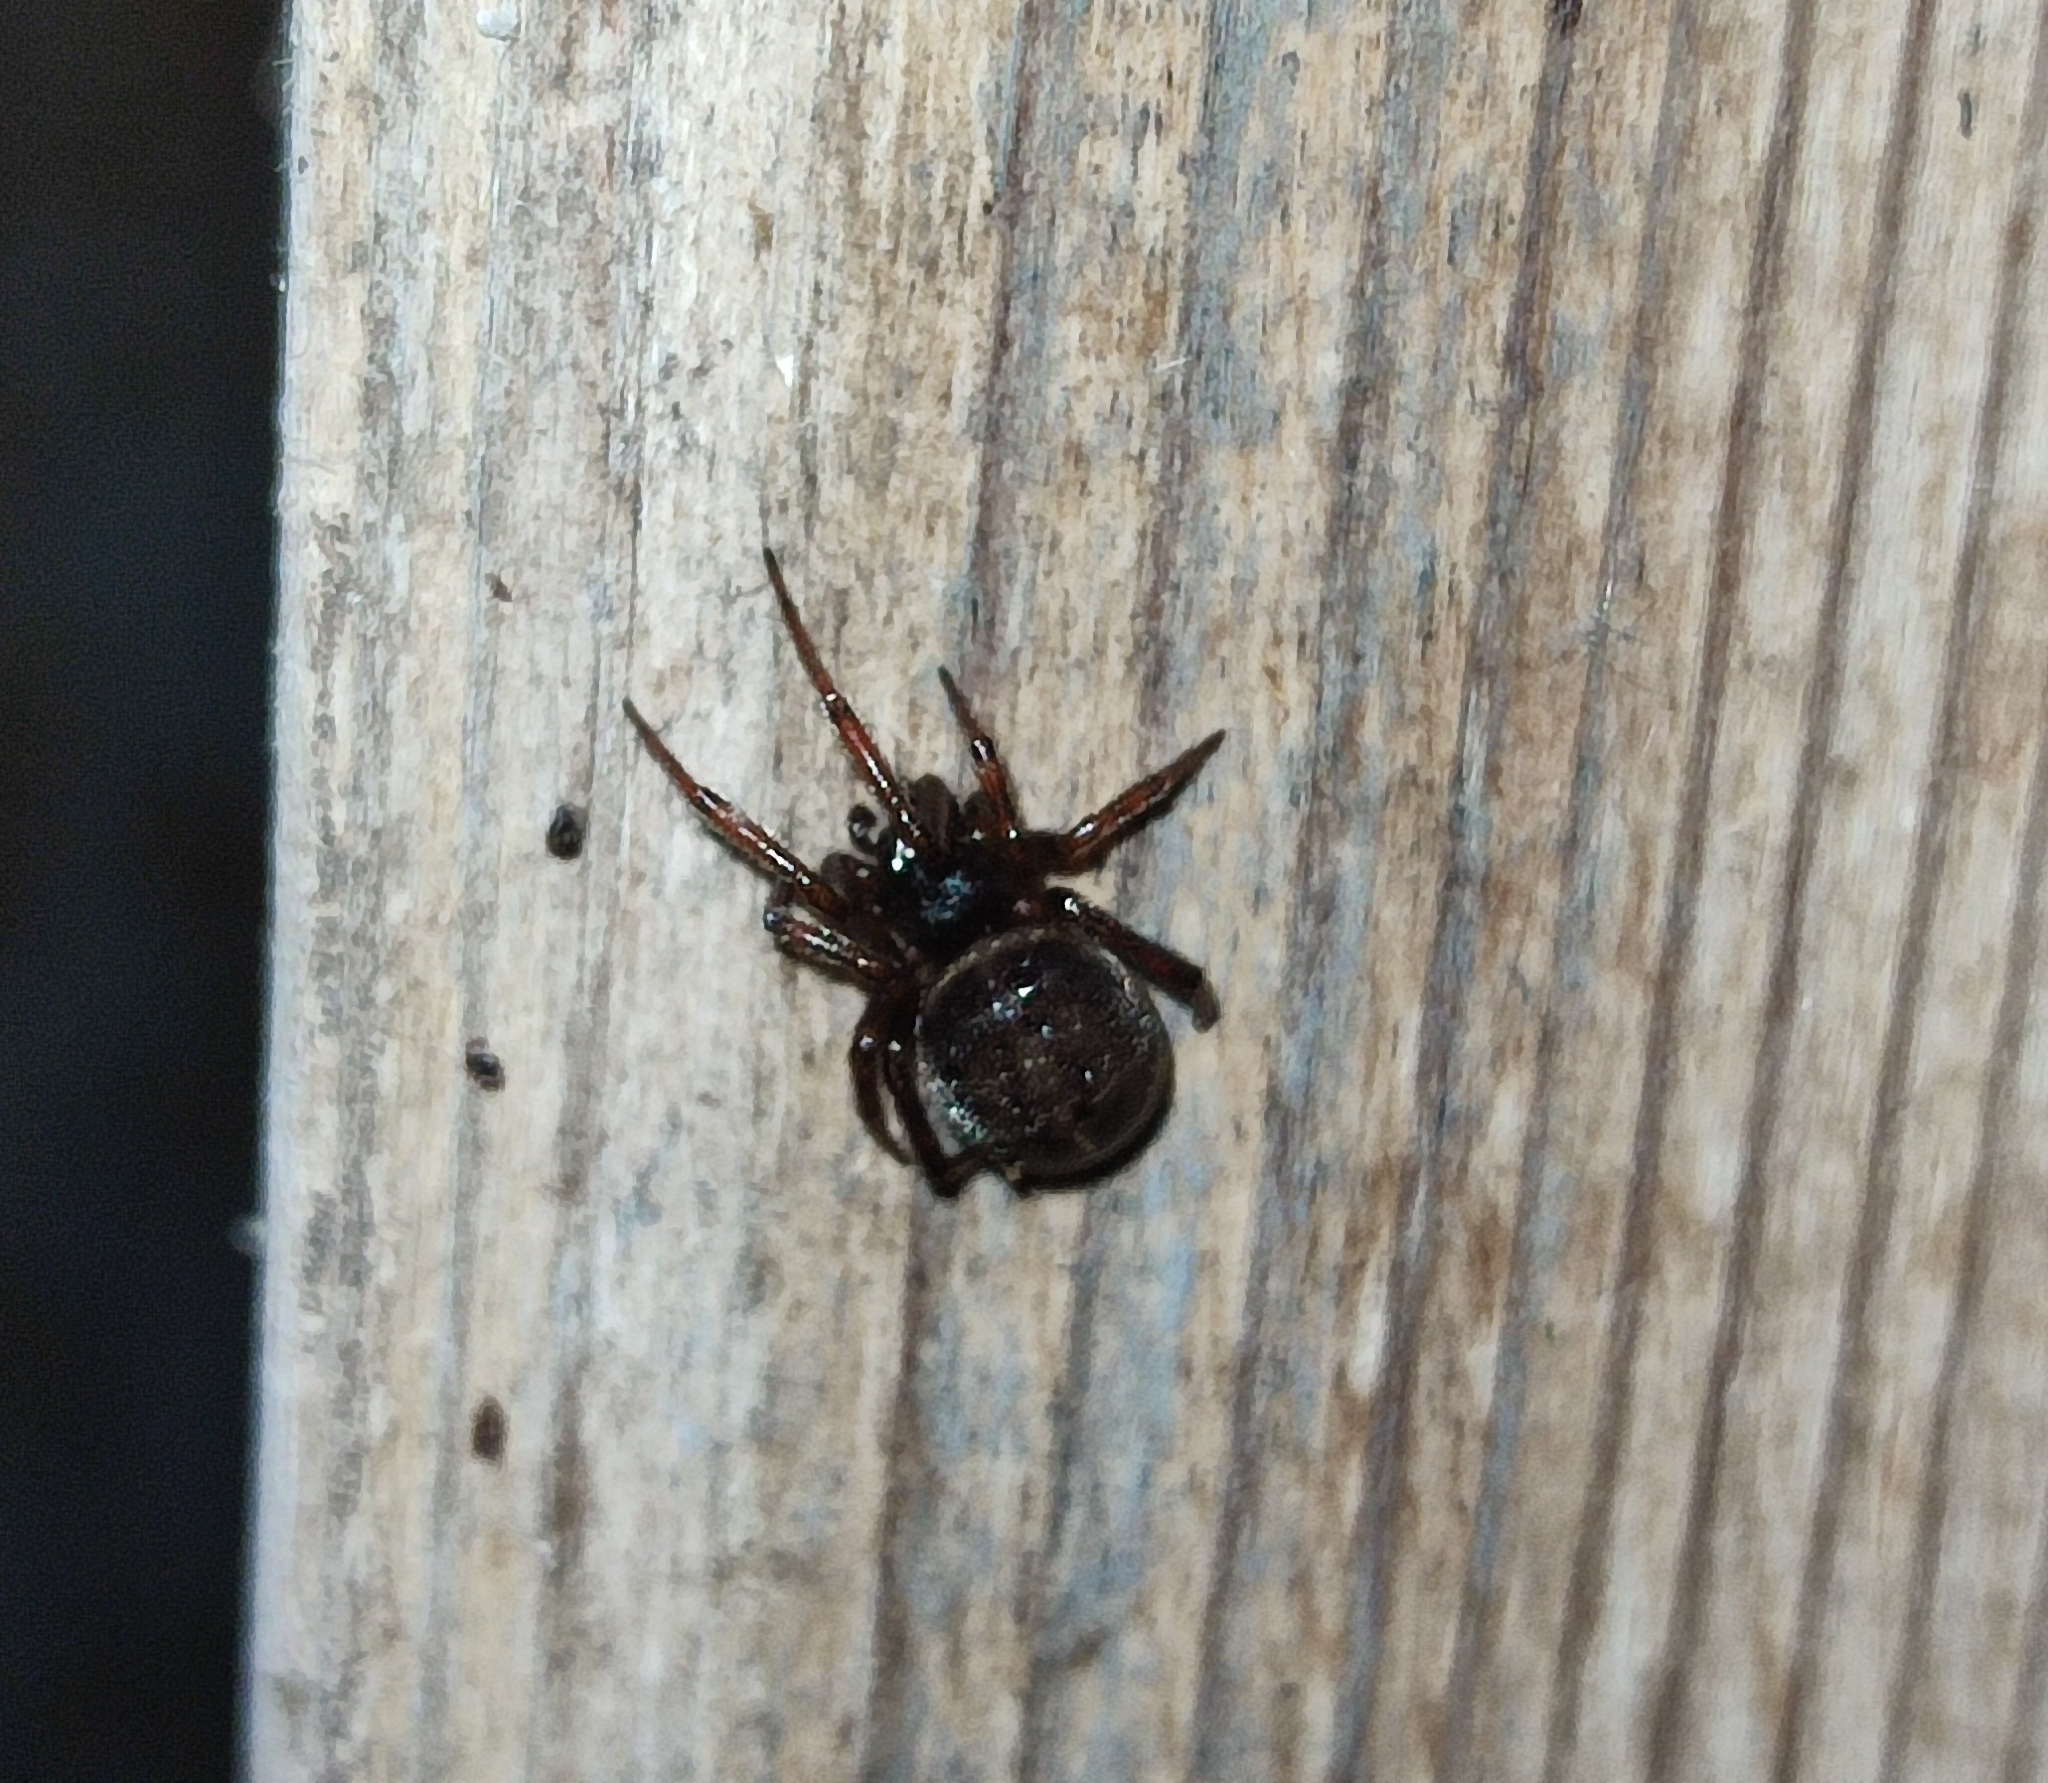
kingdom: Animalia
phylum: Arthropoda
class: Arachnida
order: Araneae
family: Theridiidae
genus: Steatoda
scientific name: Steatoda bipunctata
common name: False widow
